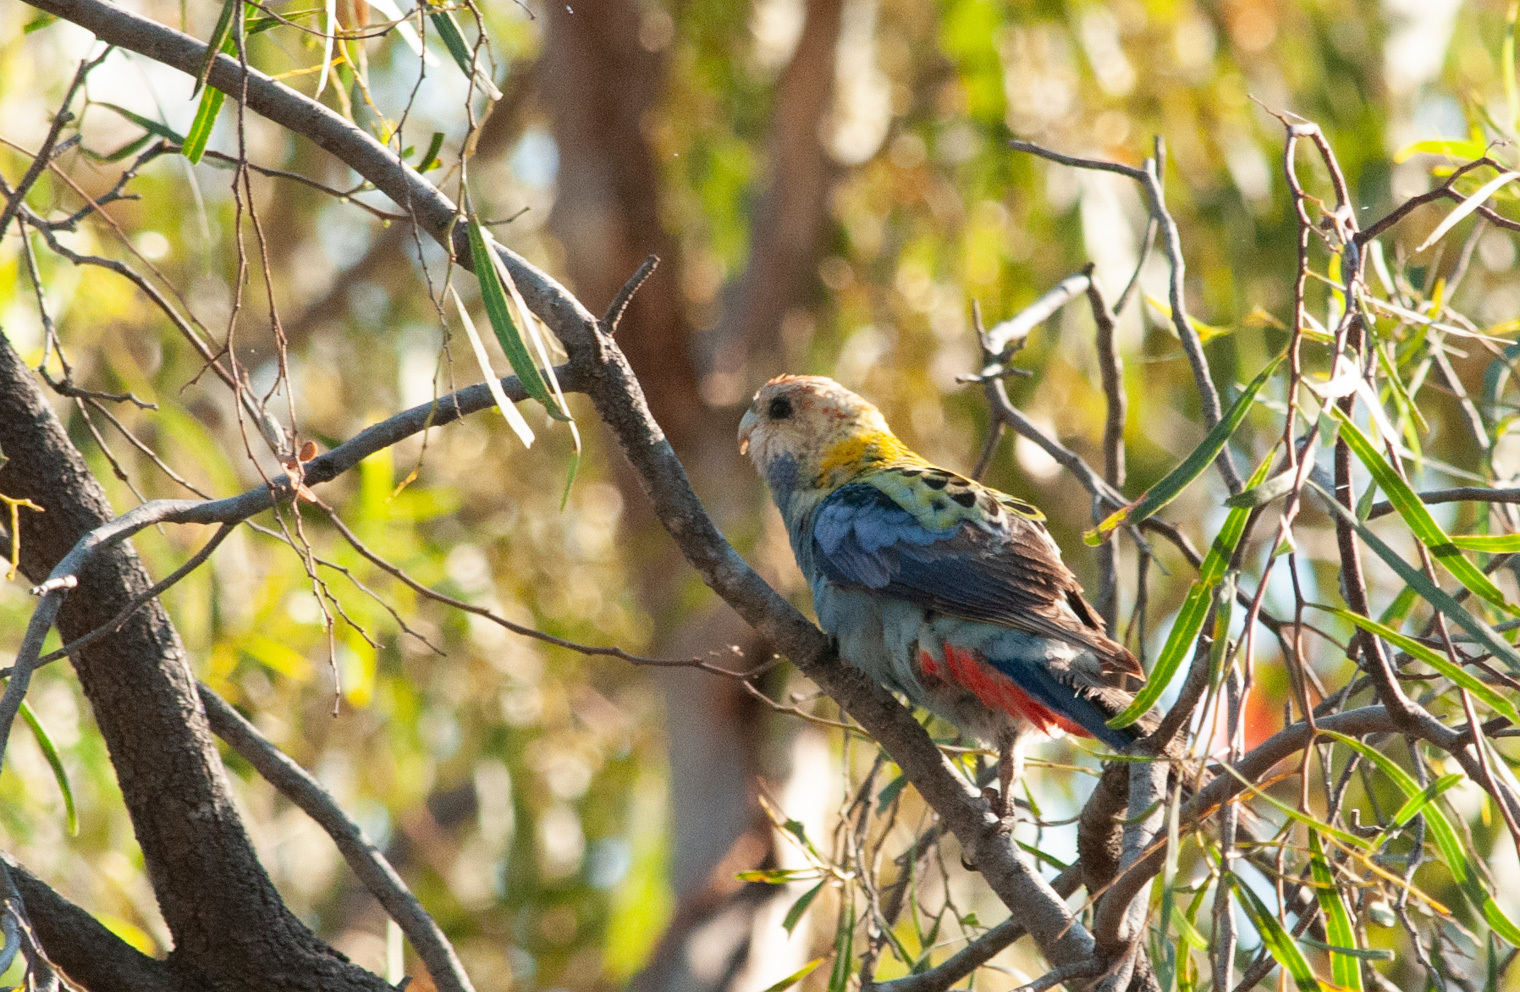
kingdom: Animalia
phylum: Chordata
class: Aves
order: Psittaciformes
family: Psittacidae
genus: Platycercus
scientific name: Platycercus adscitus
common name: Pale-headed rosella
